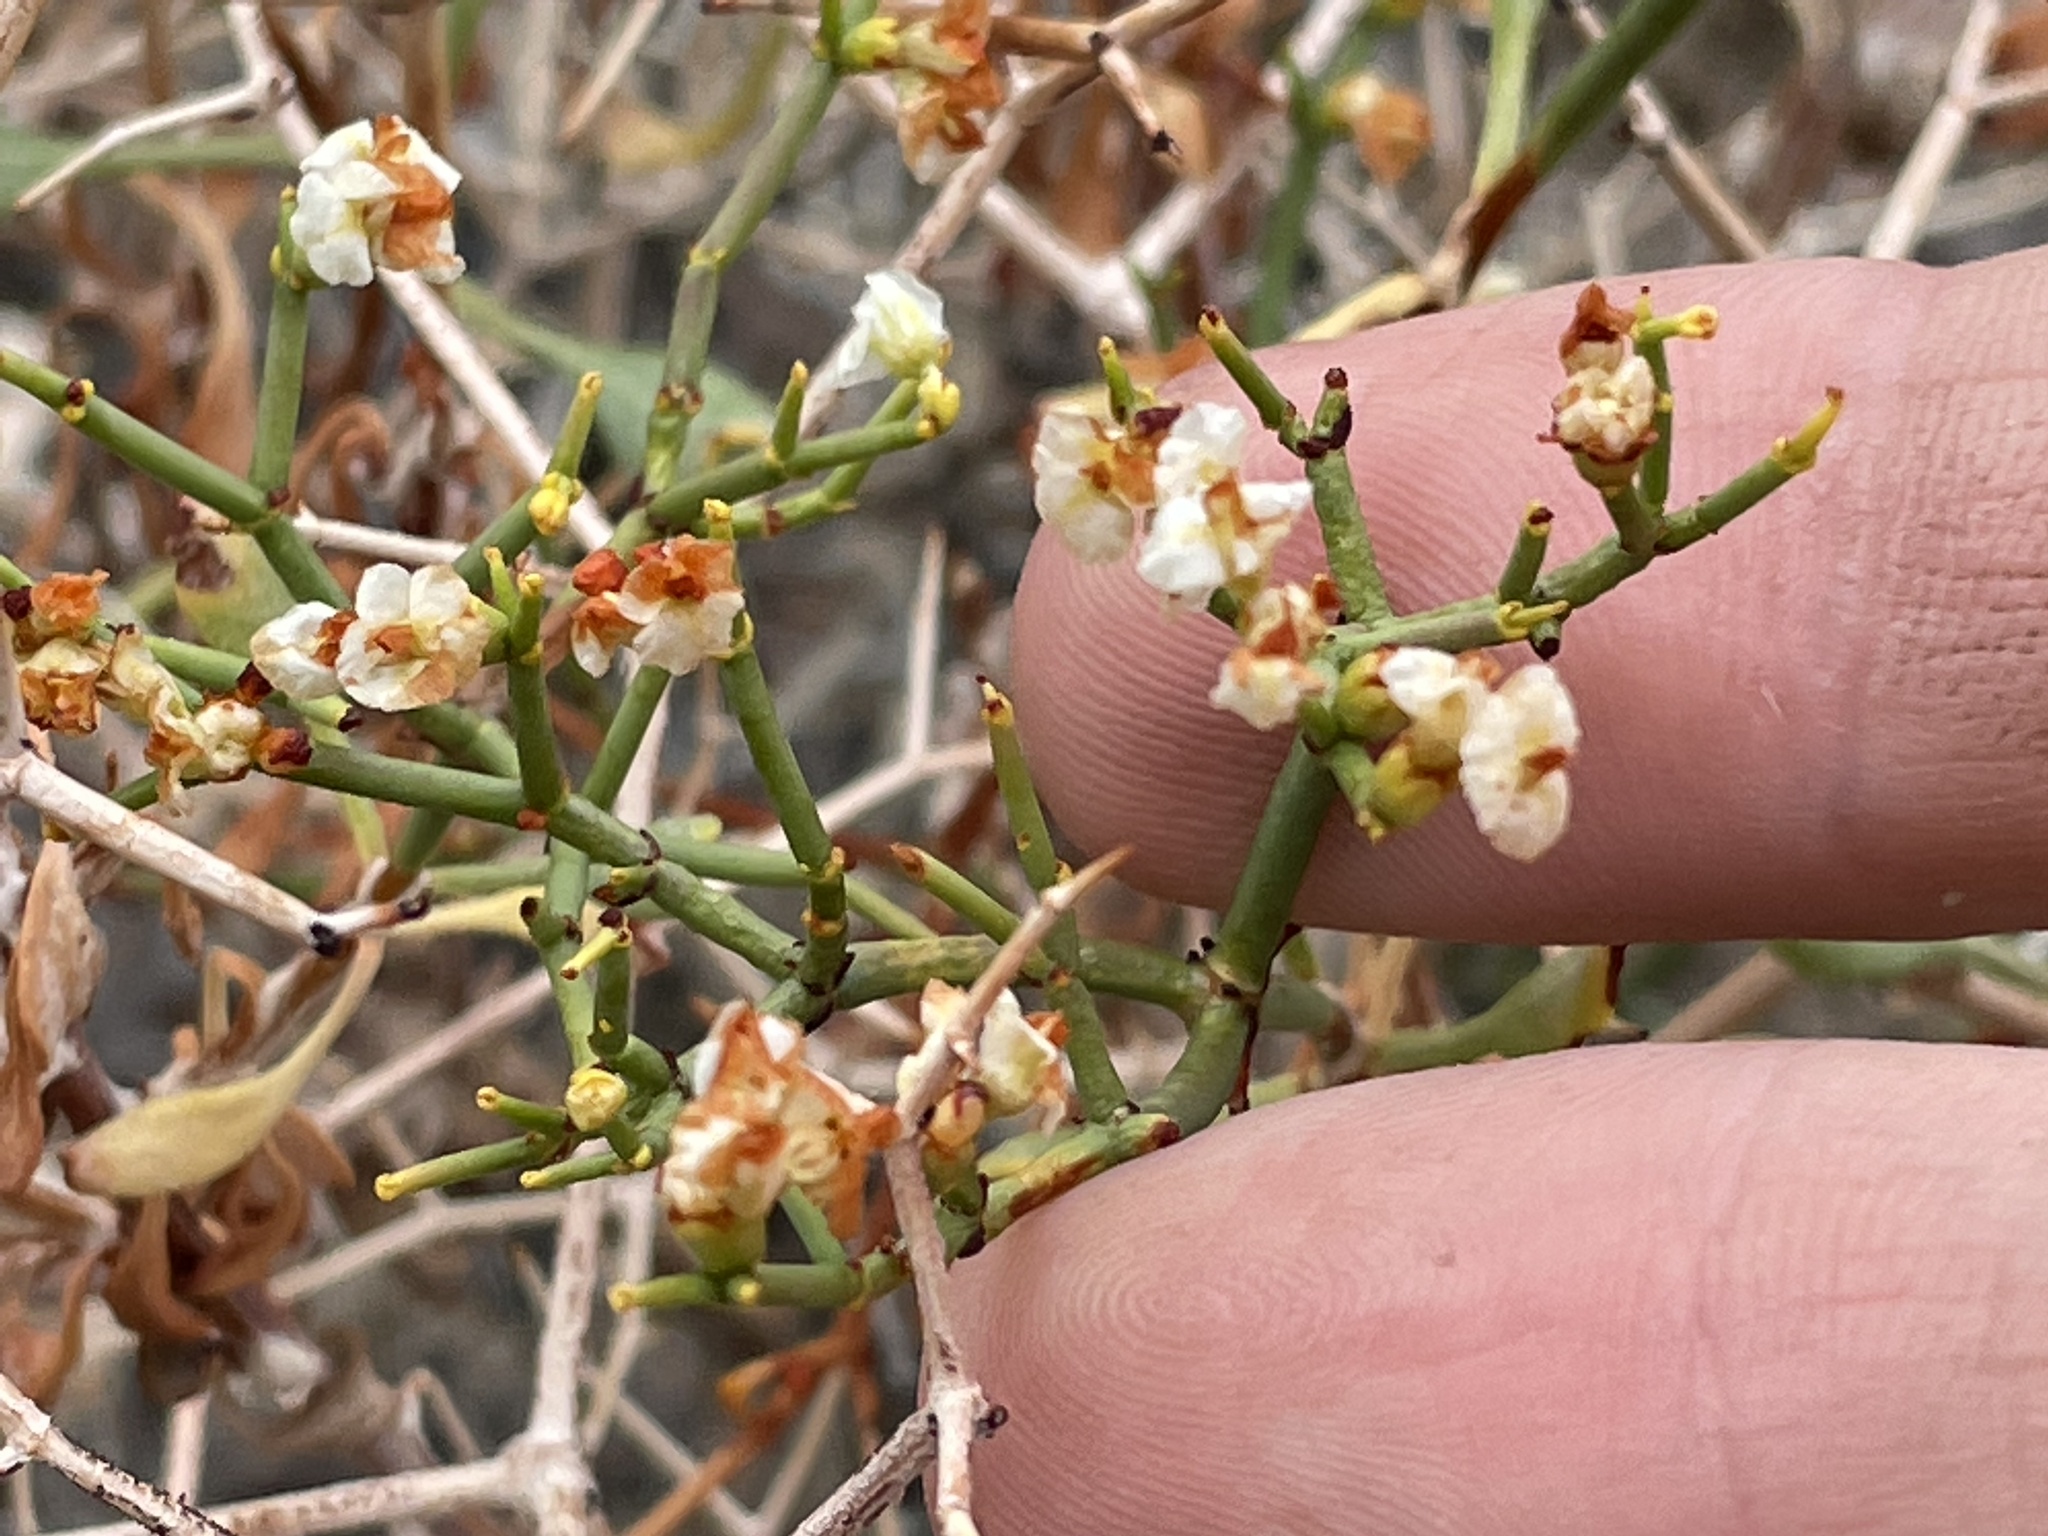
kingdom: Plantae
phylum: Tracheophyta
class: Magnoliopsida
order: Caryophyllales
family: Polygonaceae
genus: Eriogonum
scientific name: Eriogonum heermannii
